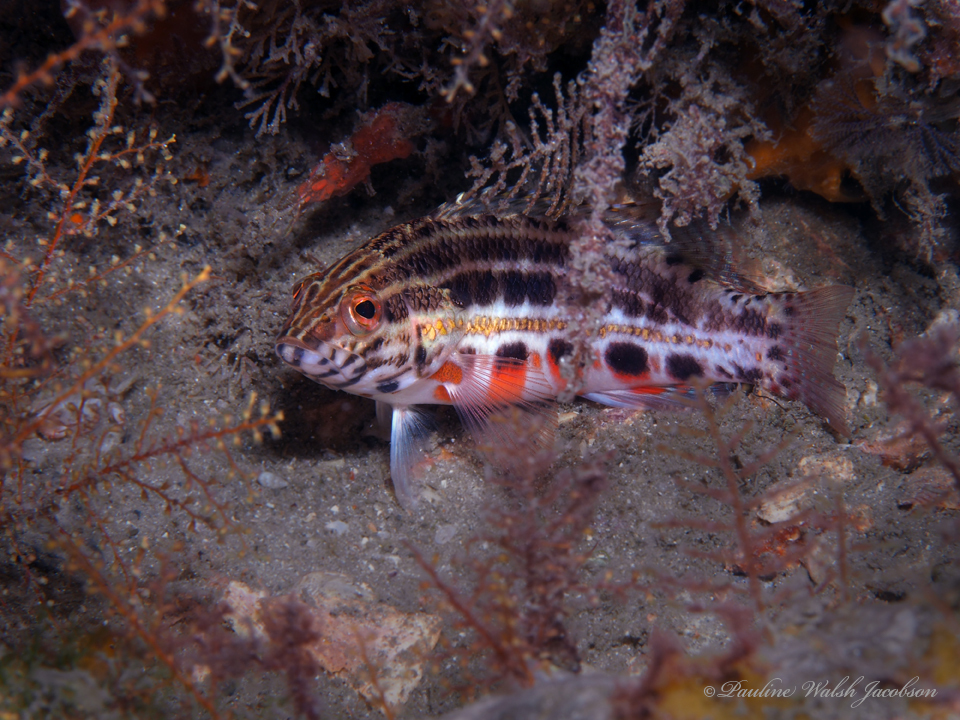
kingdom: Animalia
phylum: Chordata
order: Perciformes
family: Serranidae
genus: Serranus
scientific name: Serranus baldwini
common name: Lantern bass
